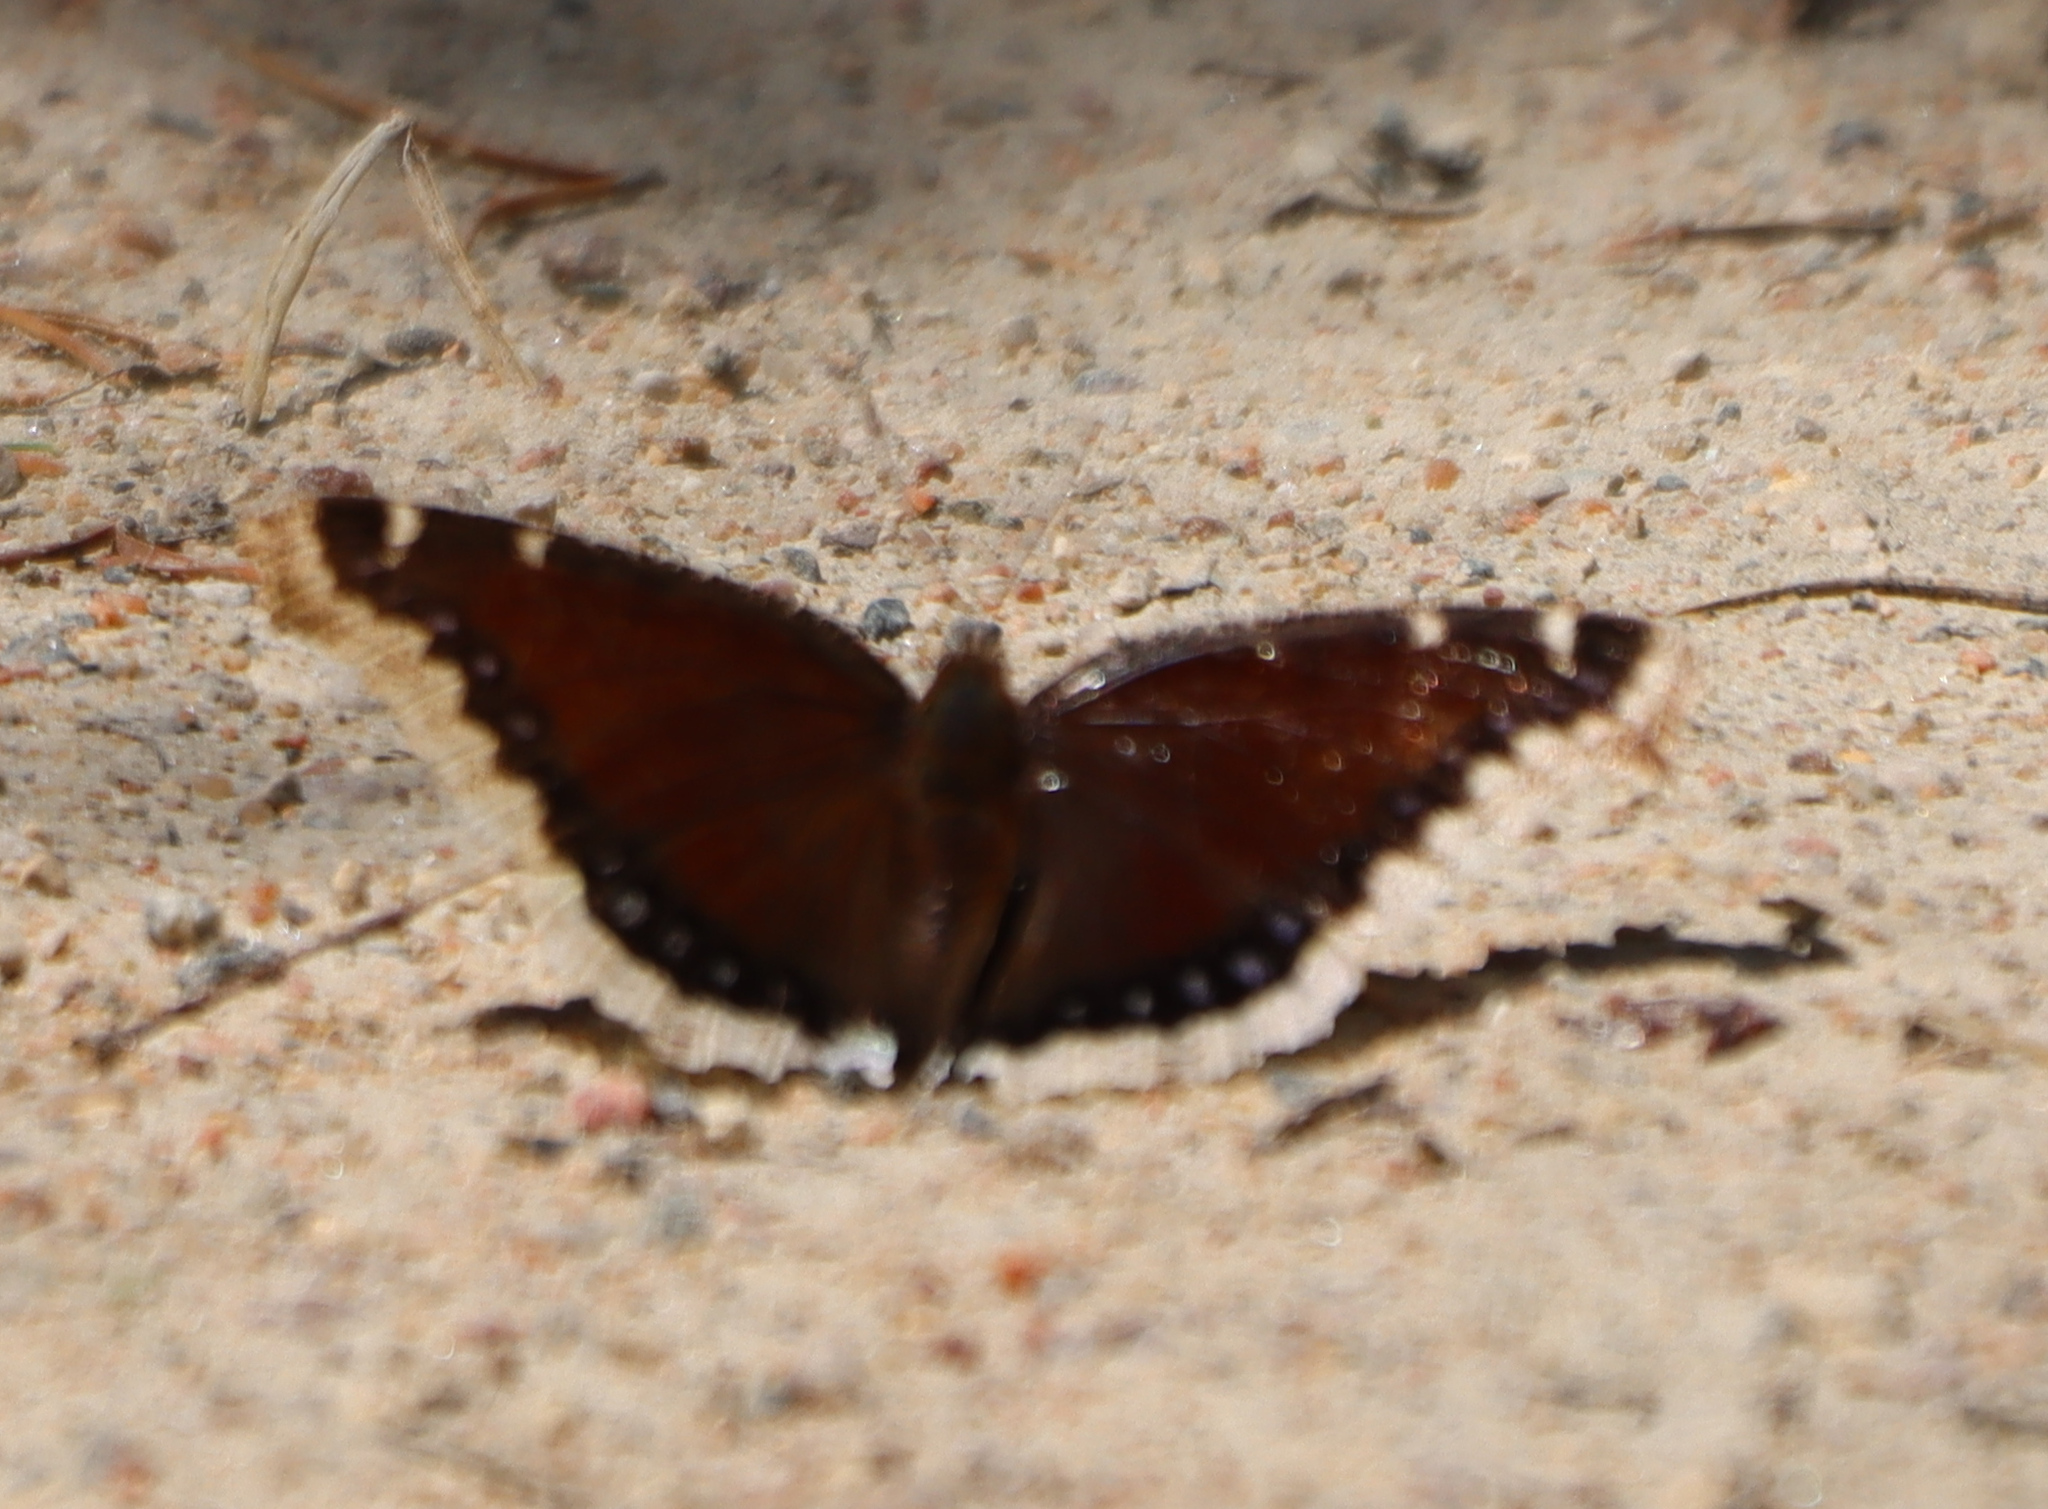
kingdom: Animalia
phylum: Arthropoda
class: Insecta
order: Lepidoptera
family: Nymphalidae
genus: Nymphalis
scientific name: Nymphalis antiopa
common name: Camberwell beauty
